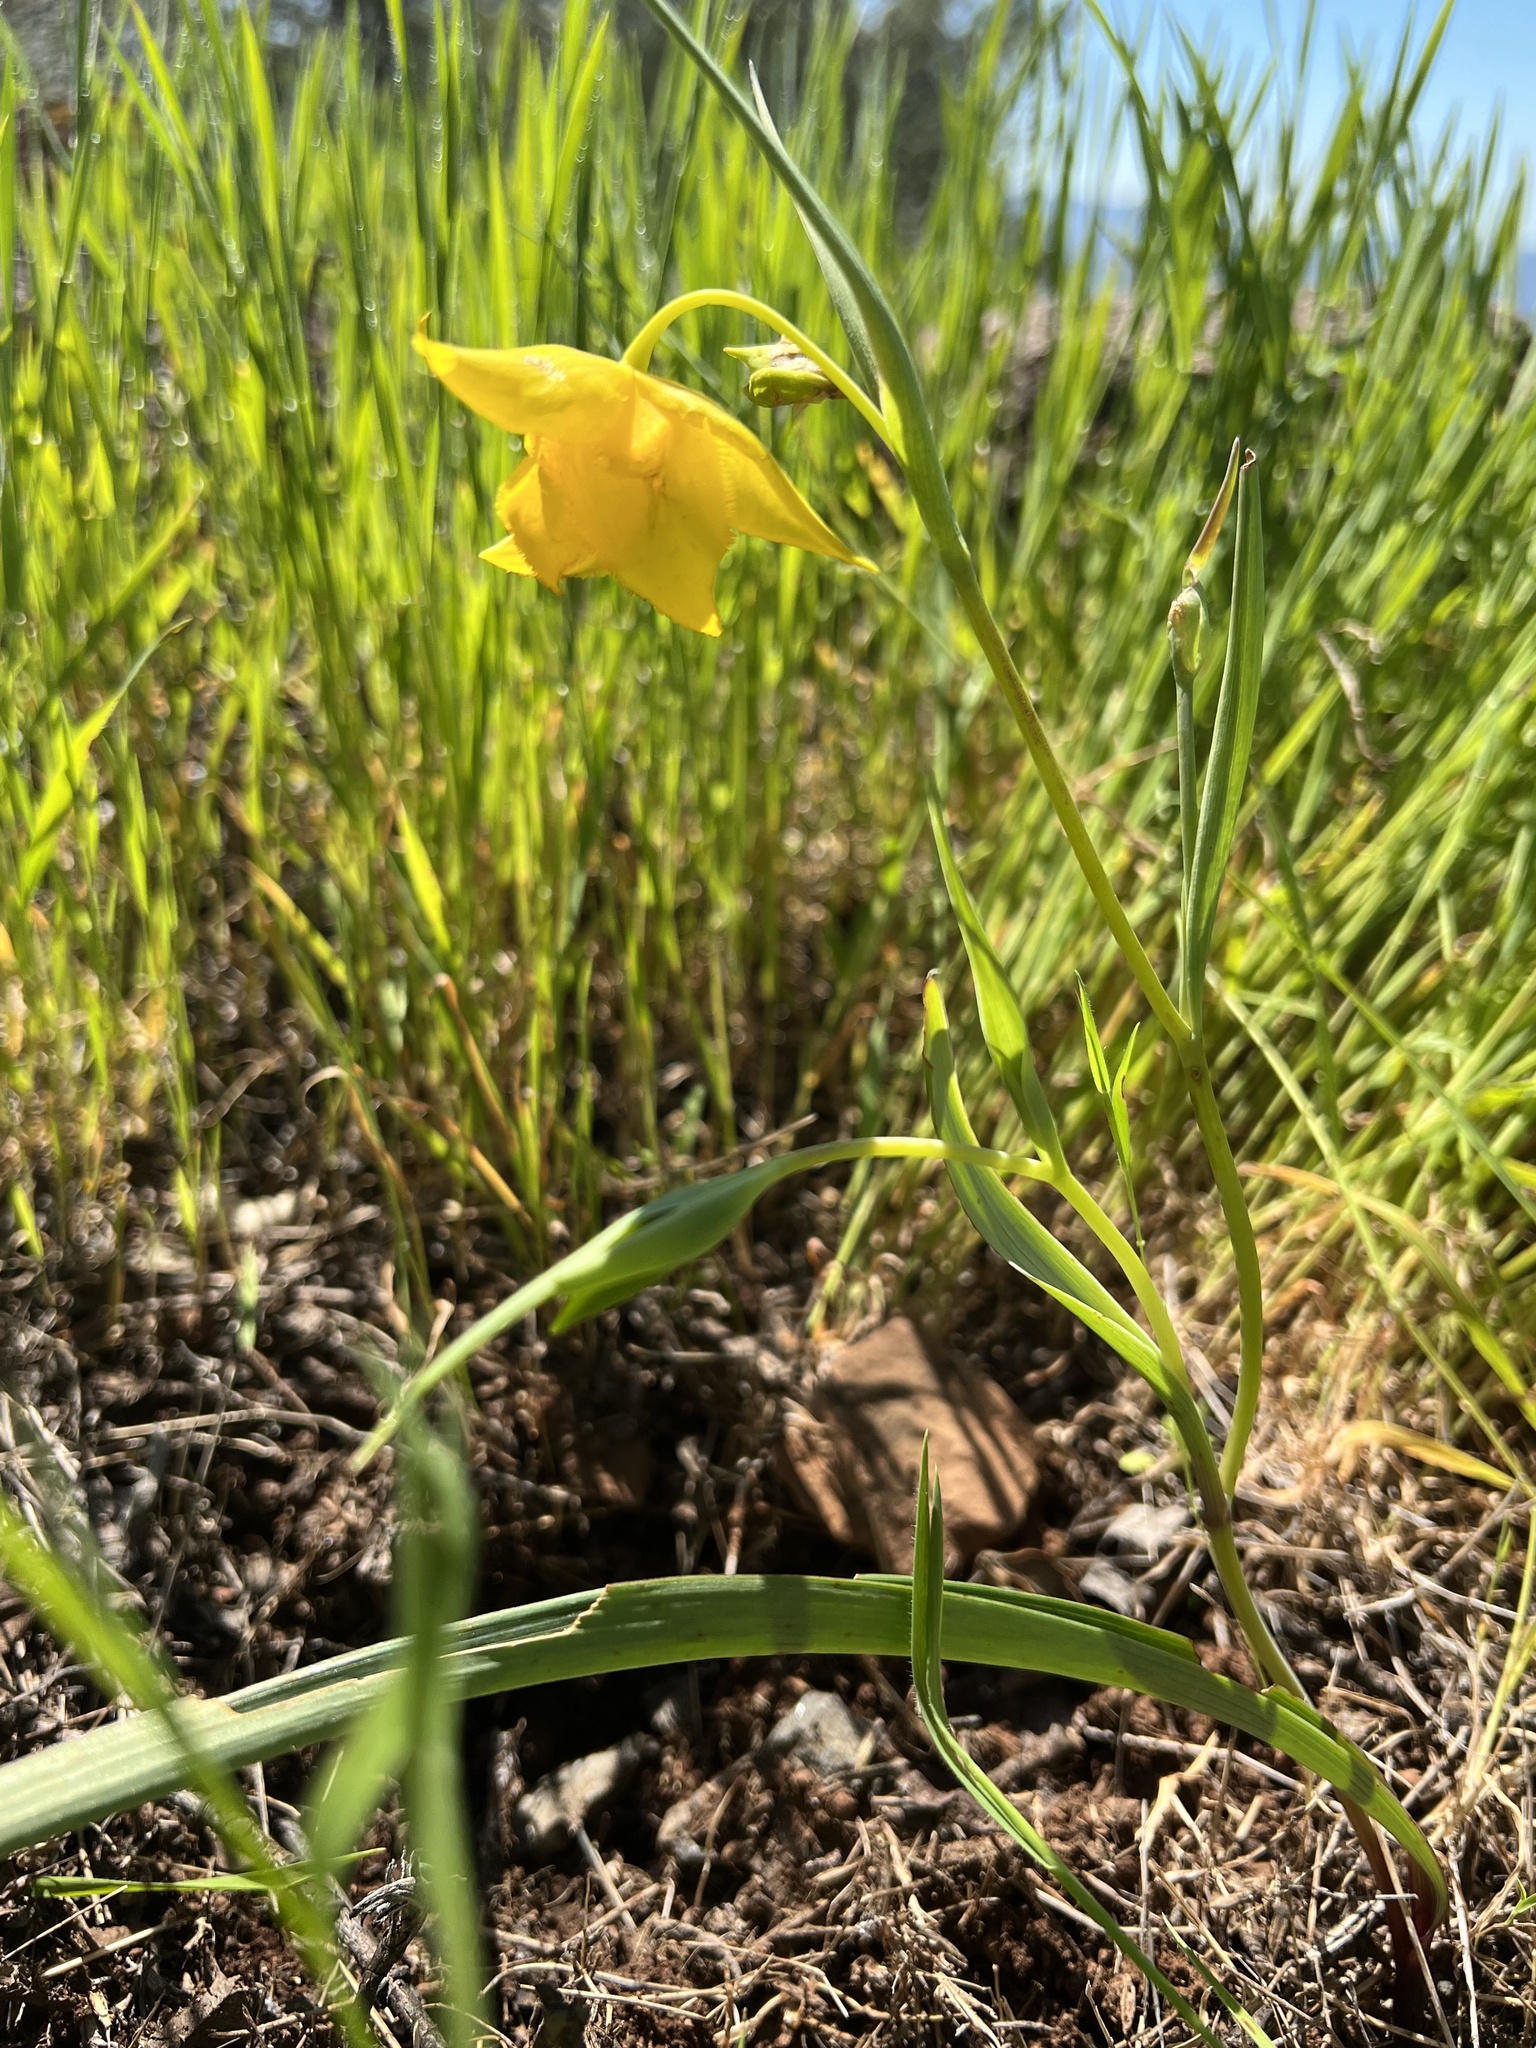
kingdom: Plantae
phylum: Tracheophyta
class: Liliopsida
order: Liliales
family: Liliaceae
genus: Calochortus
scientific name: Calochortus amabilis
